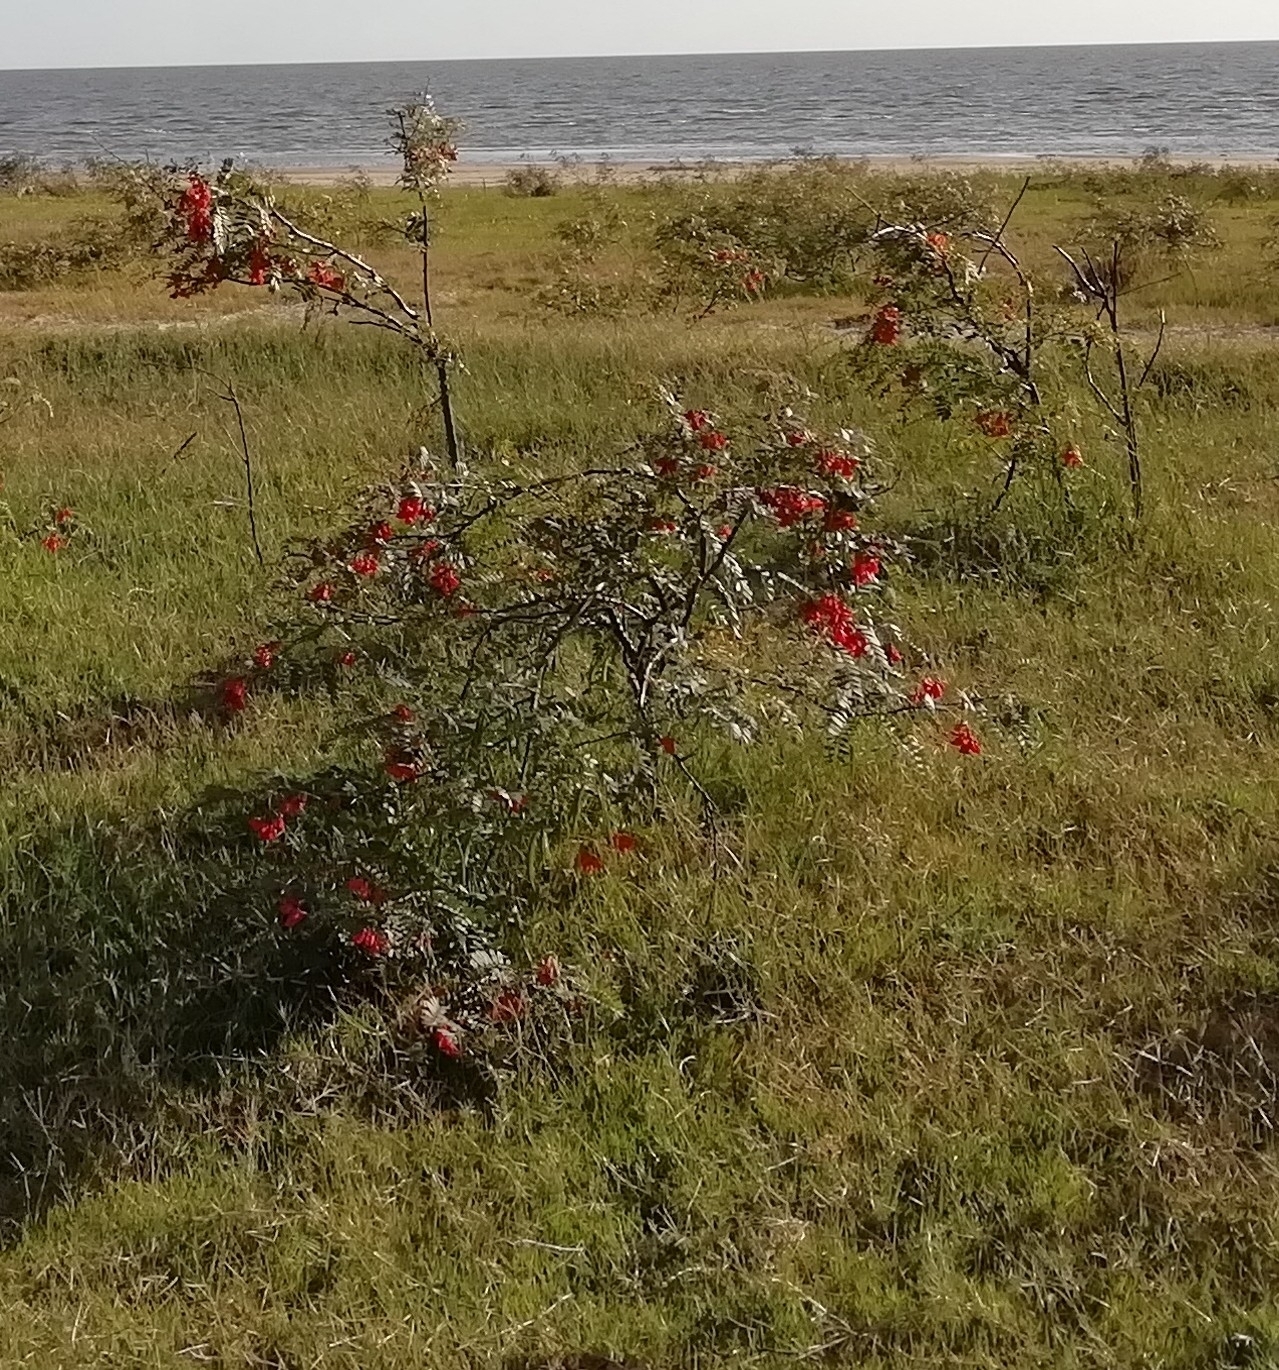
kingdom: Plantae
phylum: Tracheophyta
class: Magnoliopsida
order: Fabales
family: Fabaceae
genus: Sesbania
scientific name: Sesbania punicea
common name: Rattlebox
